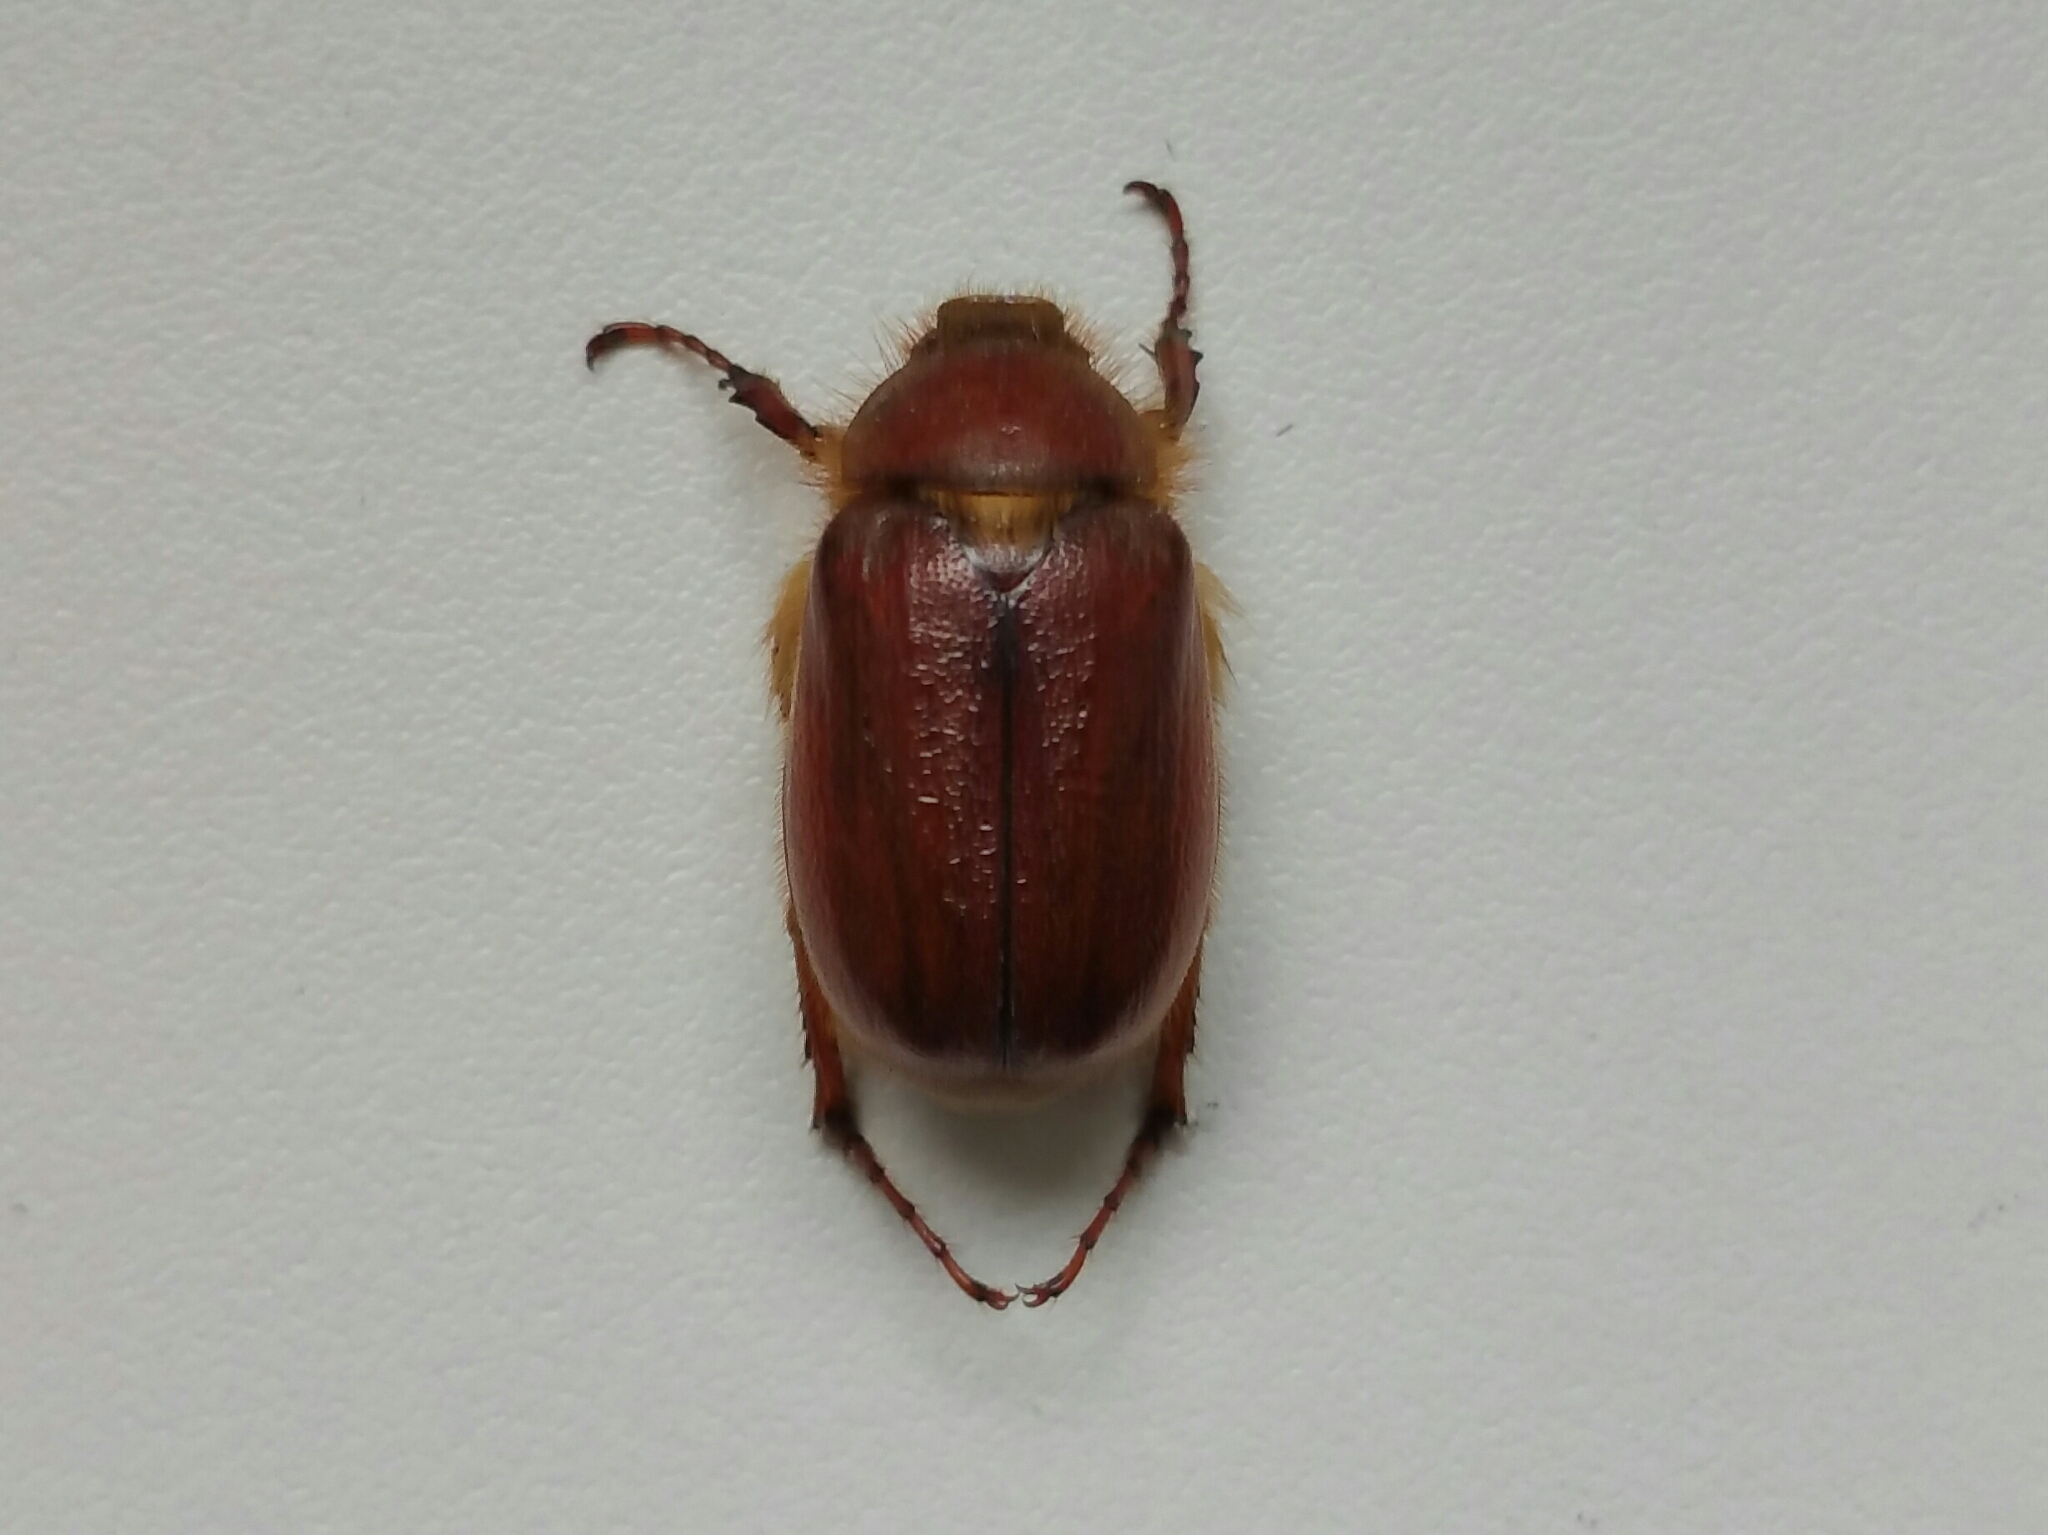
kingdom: Animalia
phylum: Arthropoda
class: Insecta
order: Coleoptera
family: Scarabaeidae
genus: Holochelus
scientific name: Holochelus aequinoctialis
